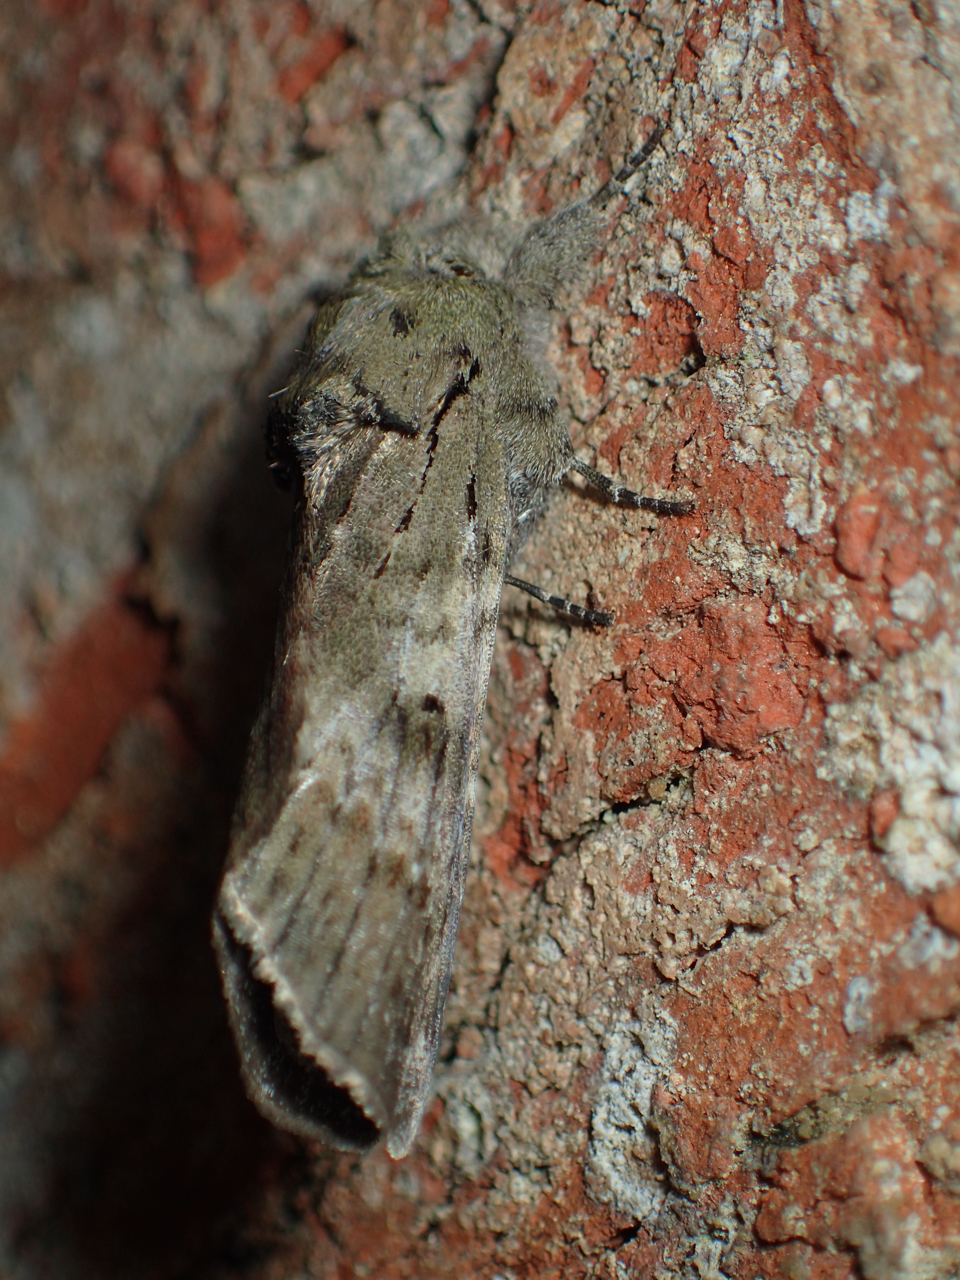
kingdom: Animalia
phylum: Arthropoda
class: Insecta
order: Lepidoptera
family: Notodontidae
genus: Schizura
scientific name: Schizura
